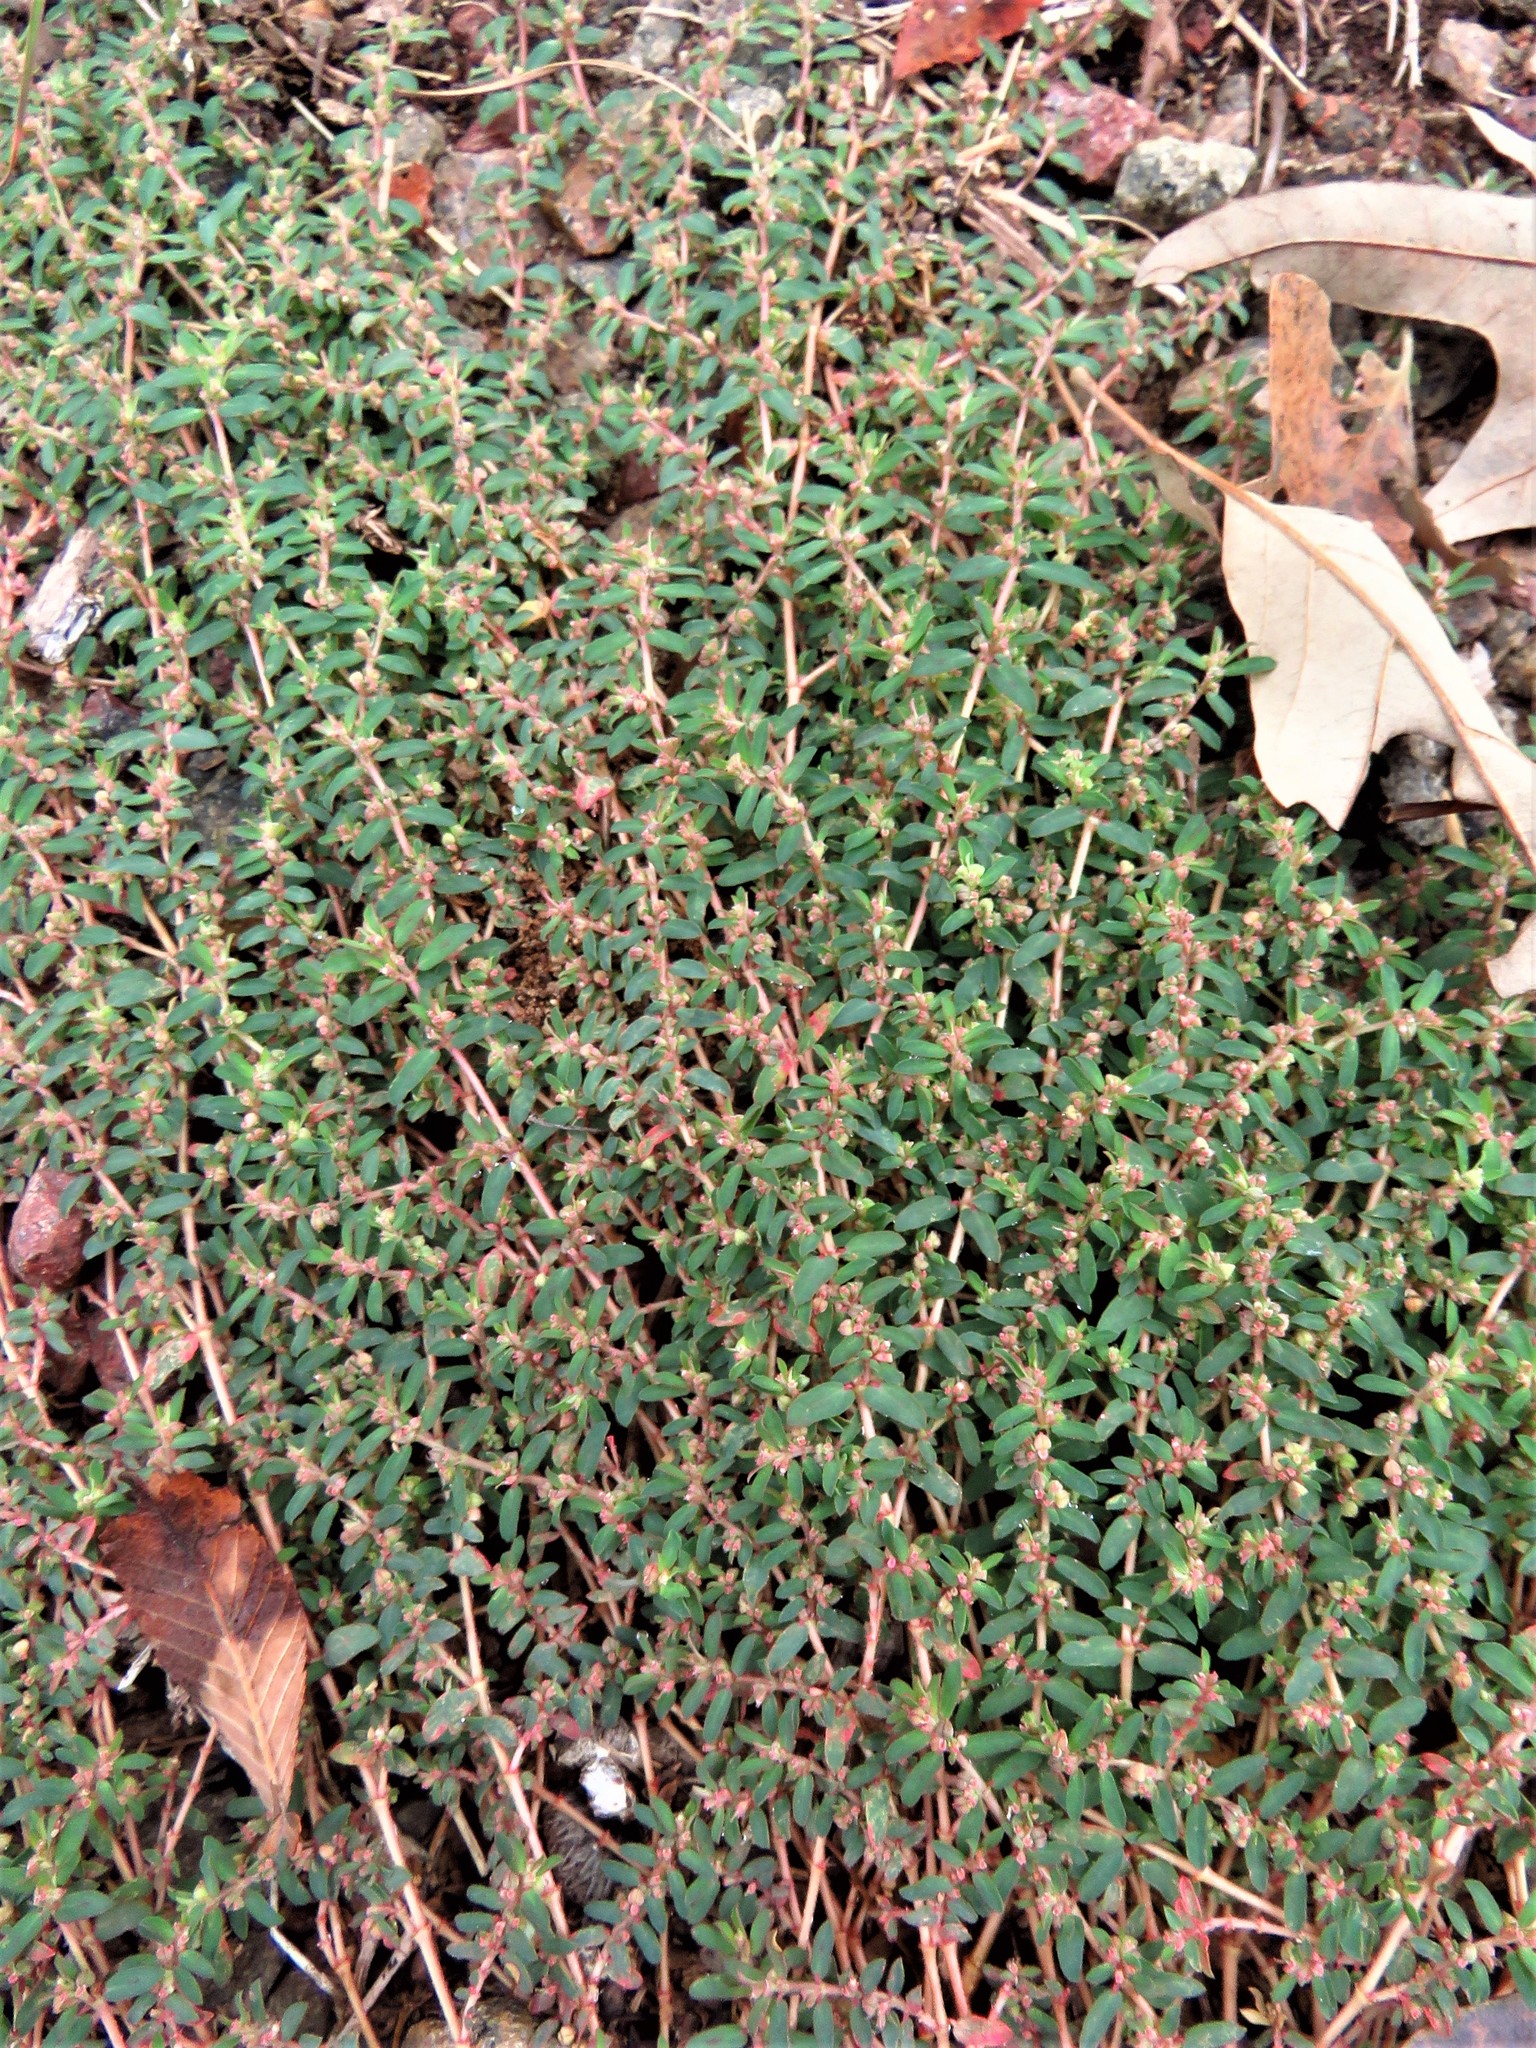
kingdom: Plantae
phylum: Tracheophyta
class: Magnoliopsida
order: Malpighiales
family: Euphorbiaceae
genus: Euphorbia
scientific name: Euphorbia maculata
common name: Spotted spurge
